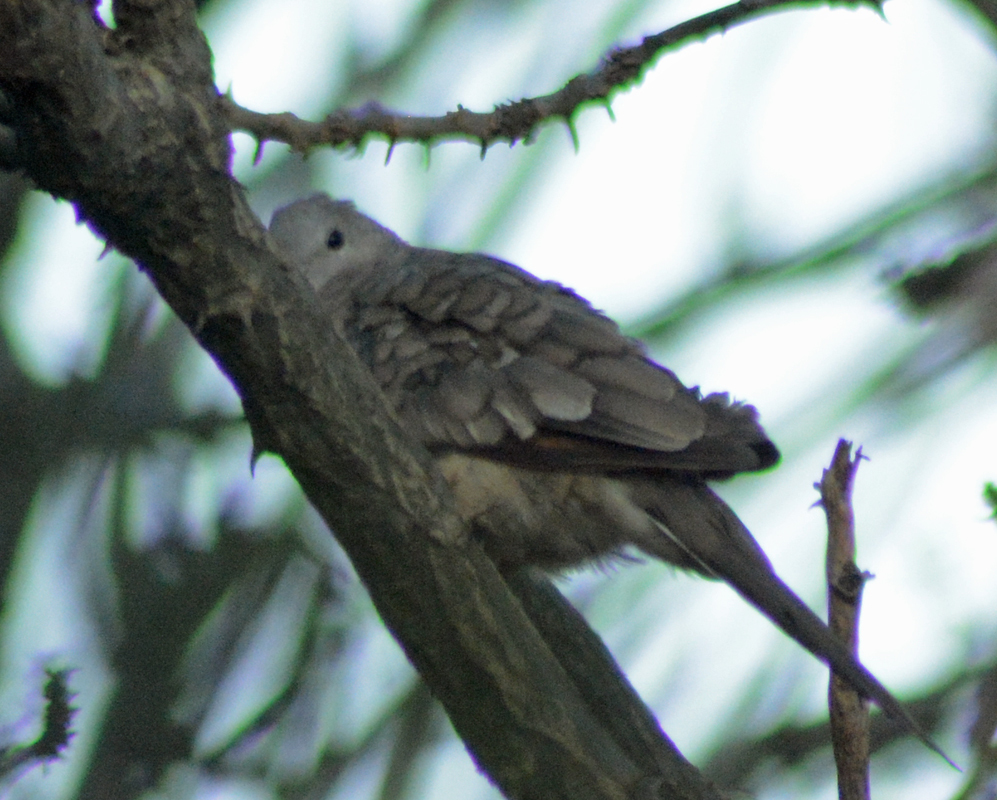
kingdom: Animalia
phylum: Chordata
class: Aves
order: Columbiformes
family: Columbidae
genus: Columbina
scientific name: Columbina inca
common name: Inca dove
